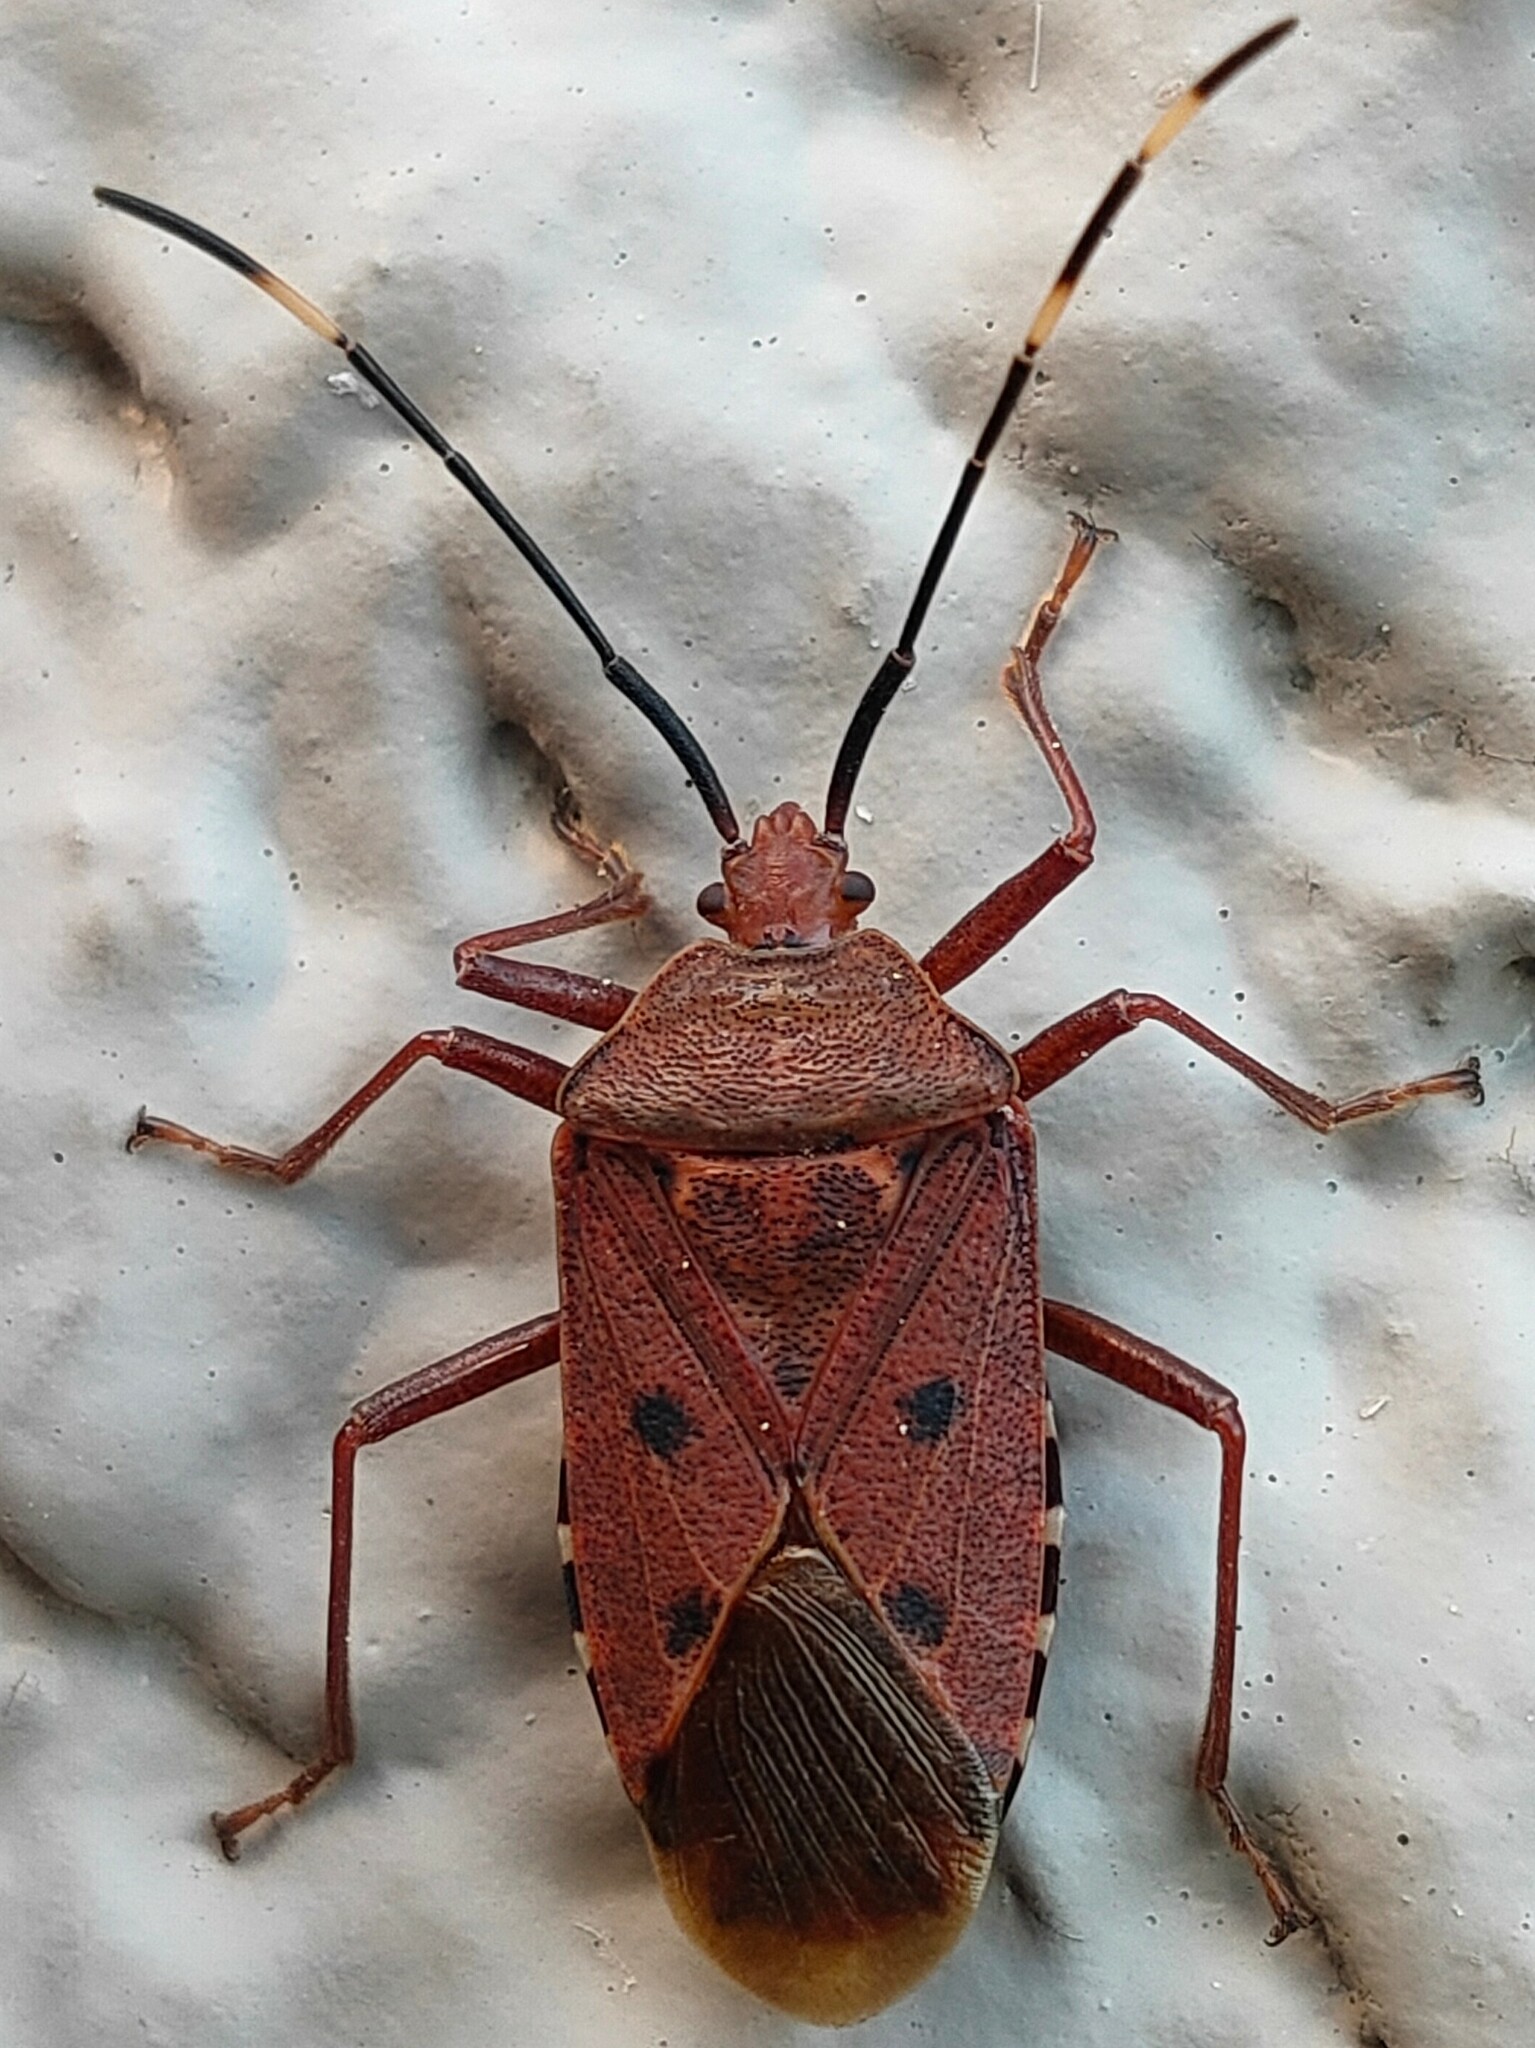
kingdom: Animalia
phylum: Arthropoda
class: Insecta
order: Hemiptera
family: Urostylididae
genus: Urochela
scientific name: Urochela quadrinotata
